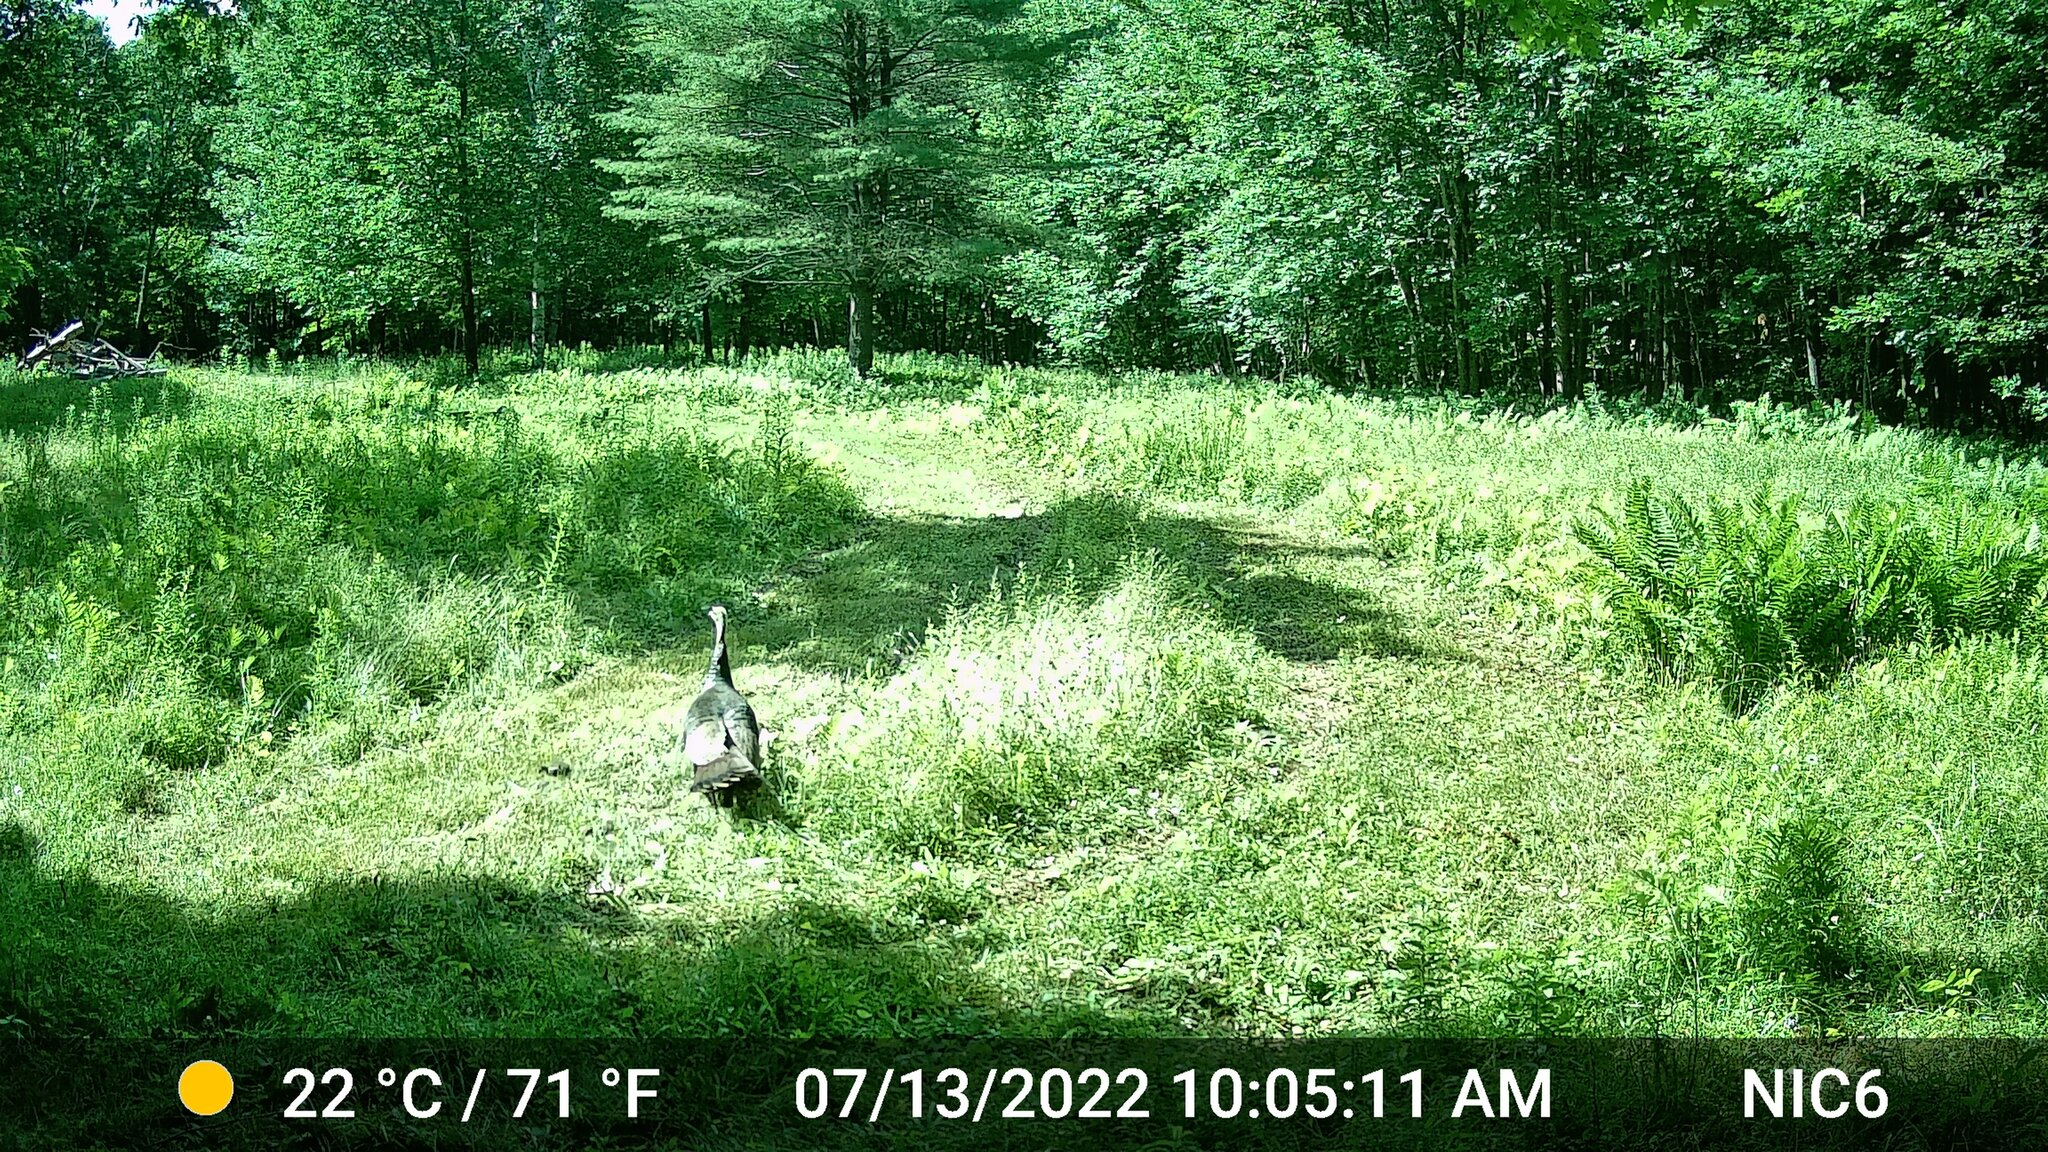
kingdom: Animalia
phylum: Chordata
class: Aves
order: Galliformes
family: Phasianidae
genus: Meleagris
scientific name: Meleagris gallopavo
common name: Wild turkey
